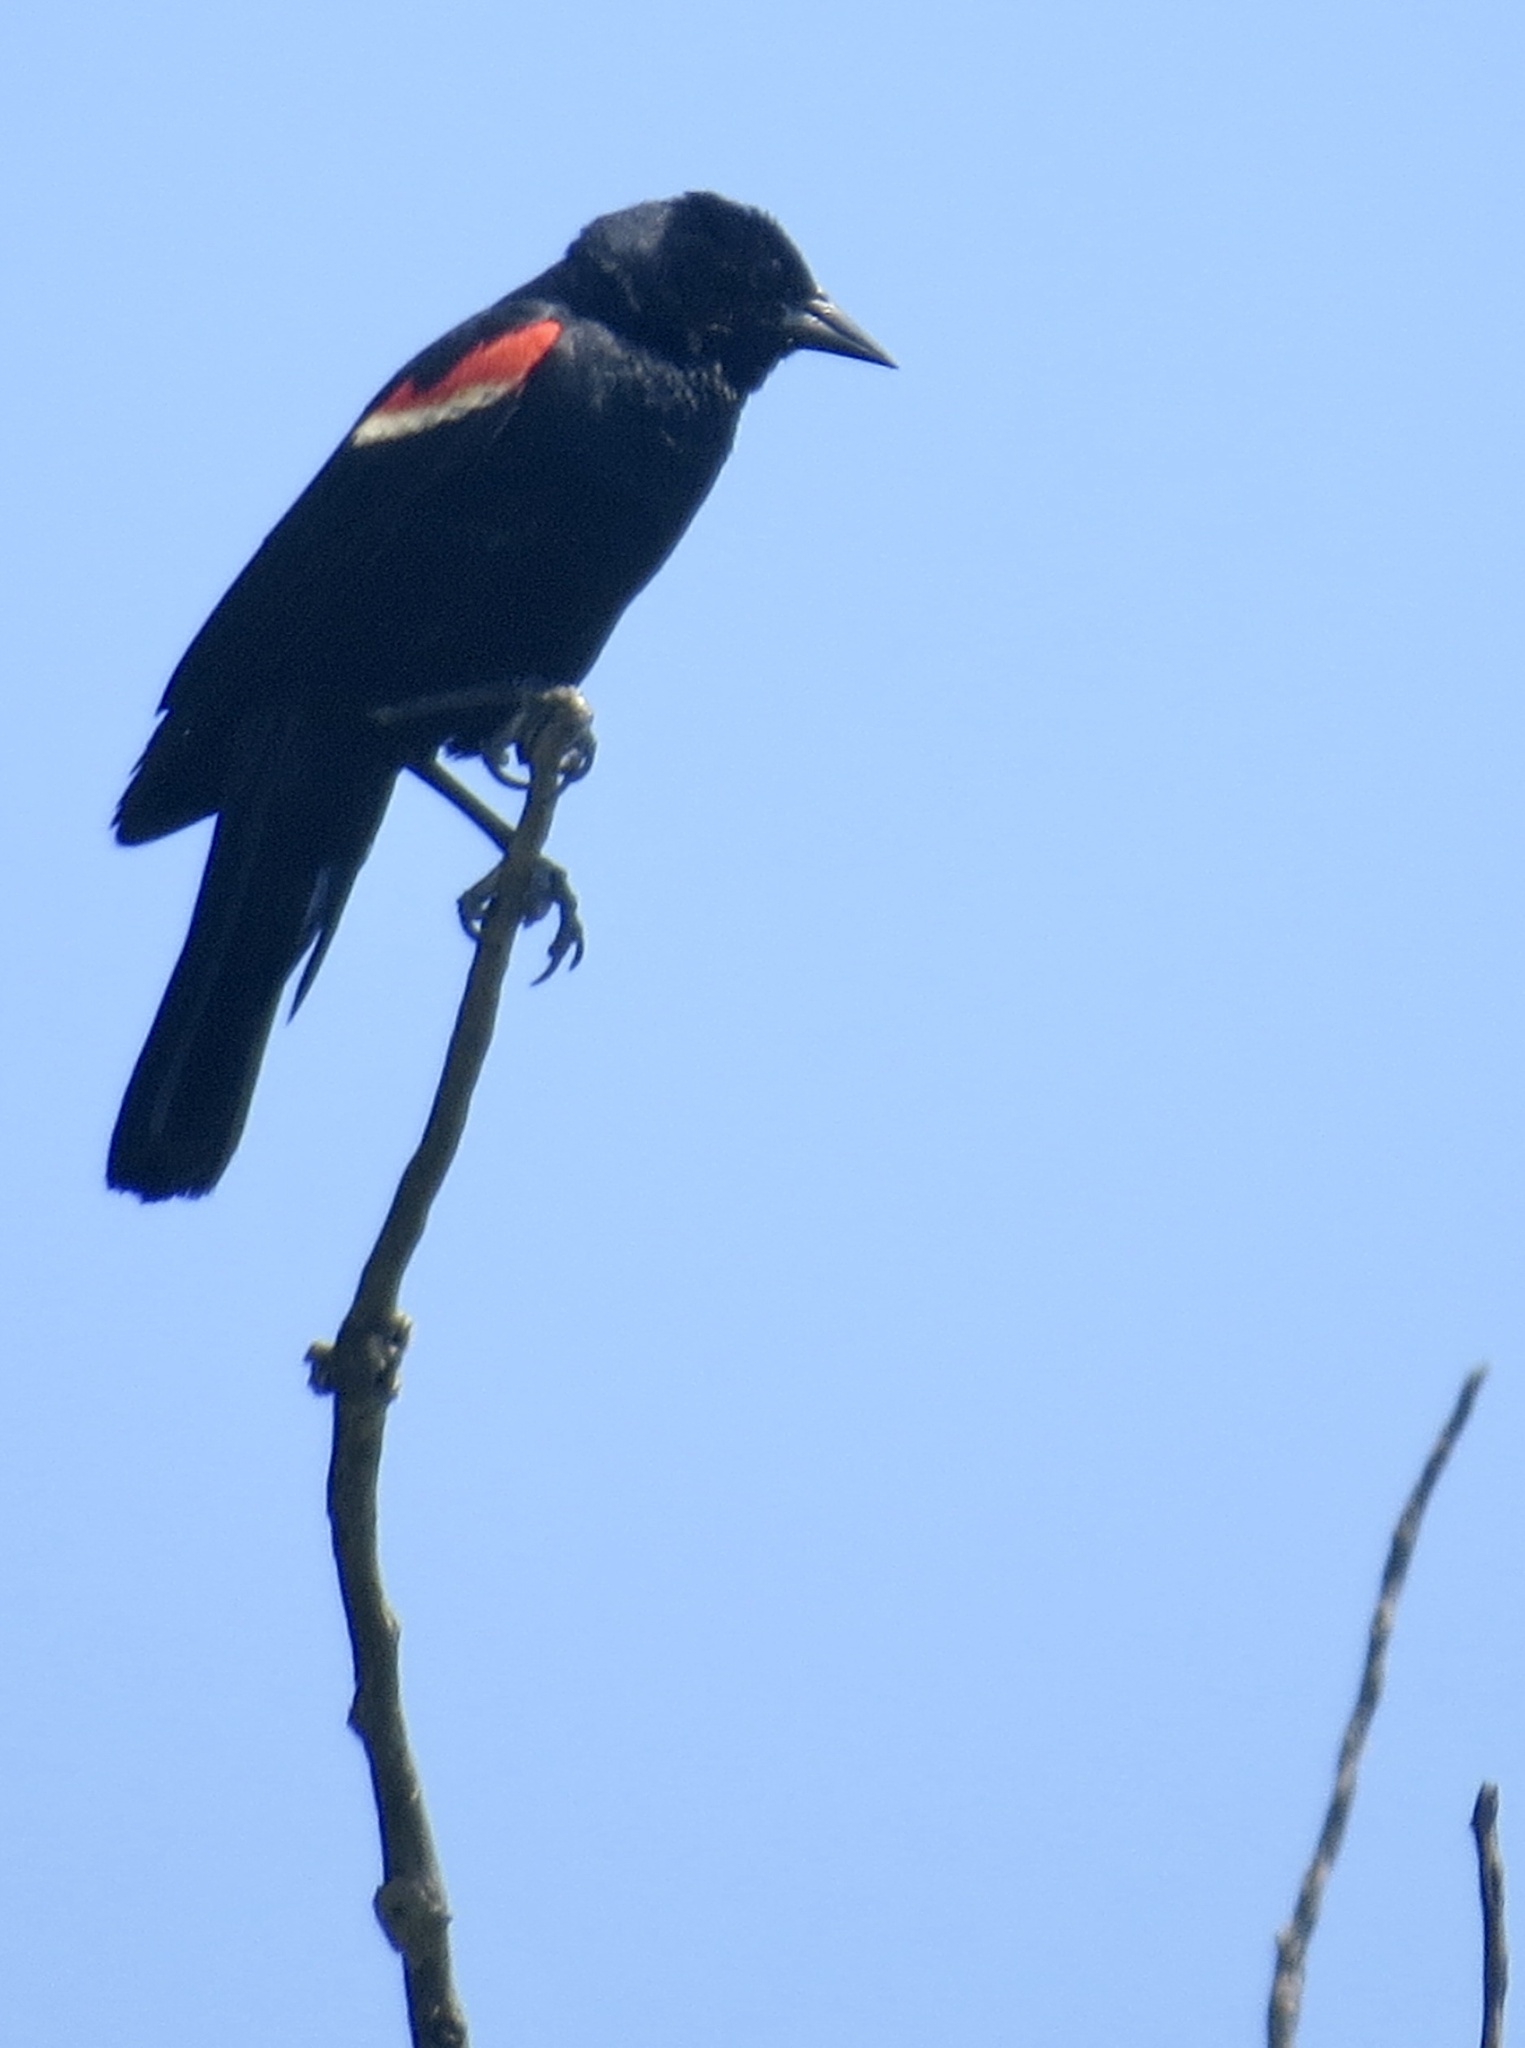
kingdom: Animalia
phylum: Chordata
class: Aves
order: Passeriformes
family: Icteridae
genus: Agelaius
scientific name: Agelaius phoeniceus
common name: Red-winged blackbird
